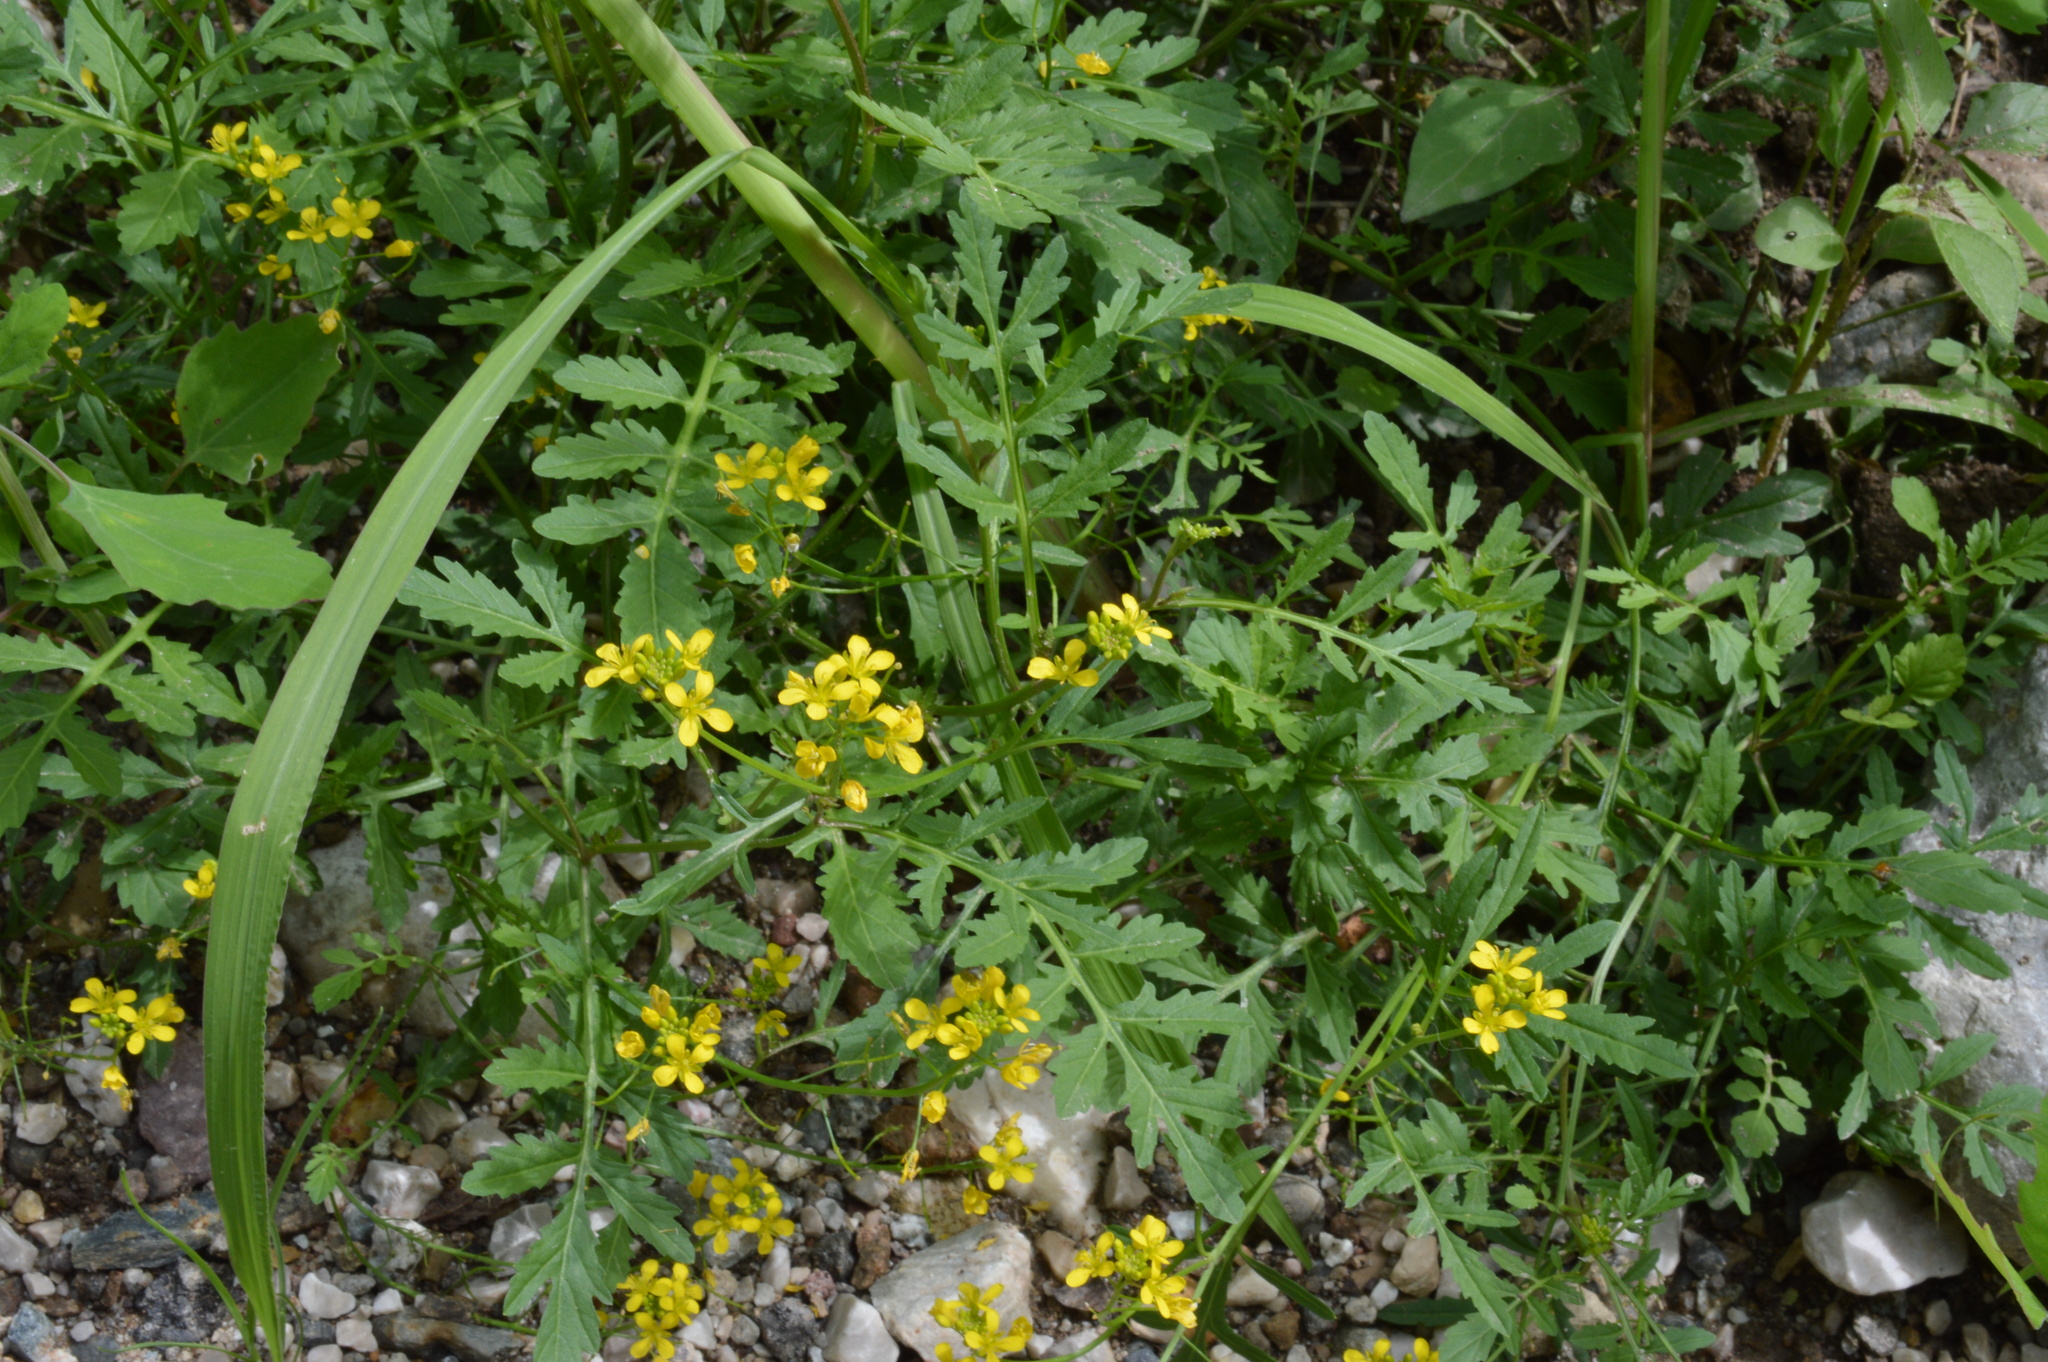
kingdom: Plantae
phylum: Tracheophyta
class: Magnoliopsida
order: Brassicales
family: Brassicaceae
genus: Rorippa
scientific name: Rorippa sylvestris
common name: Creeping yellowcress
